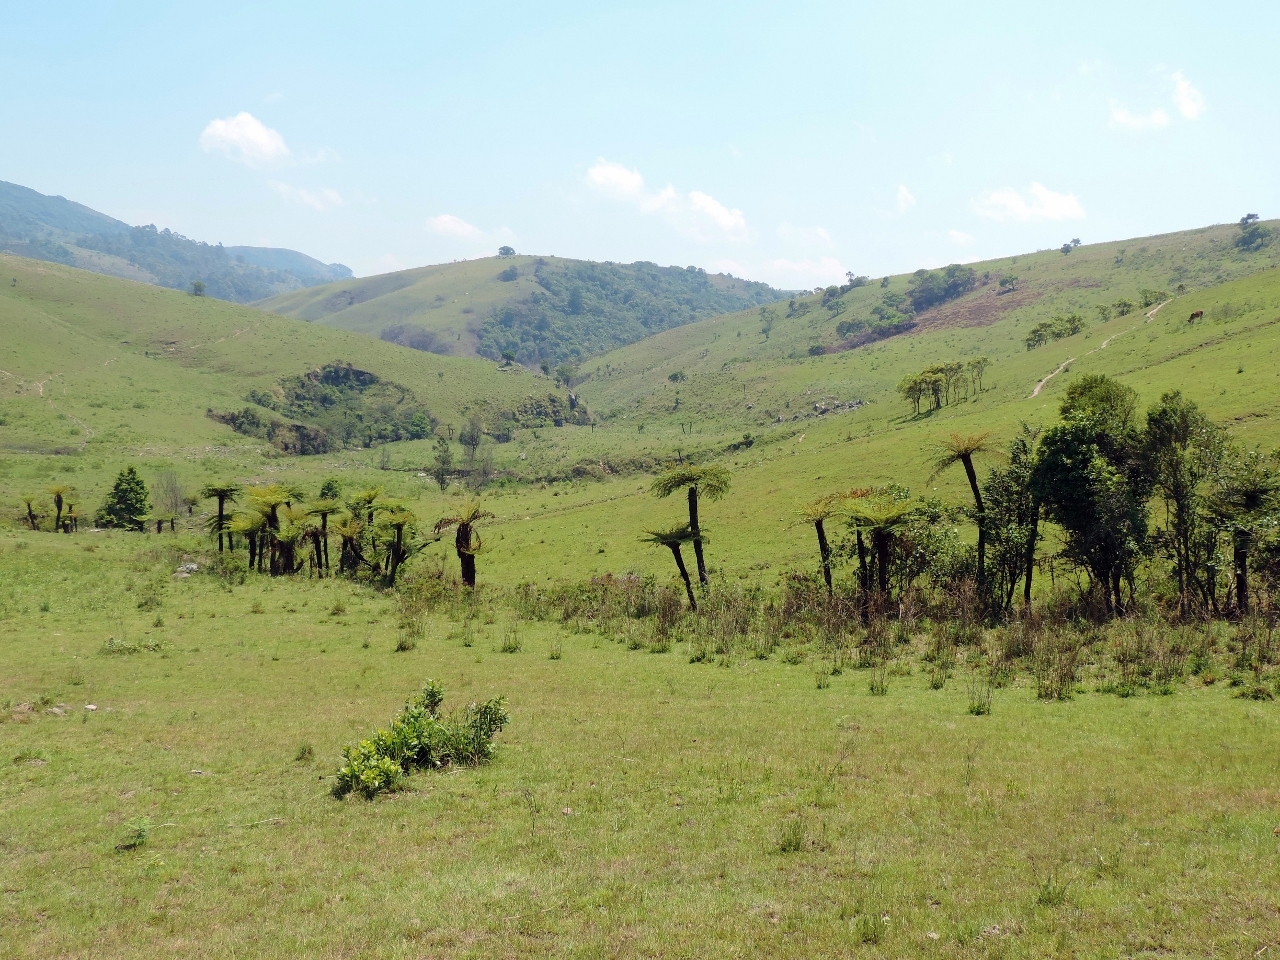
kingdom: Plantae
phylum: Tracheophyta
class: Polypodiopsida
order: Cyatheales
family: Cyatheaceae
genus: Alsophila
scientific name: Alsophila dregei
